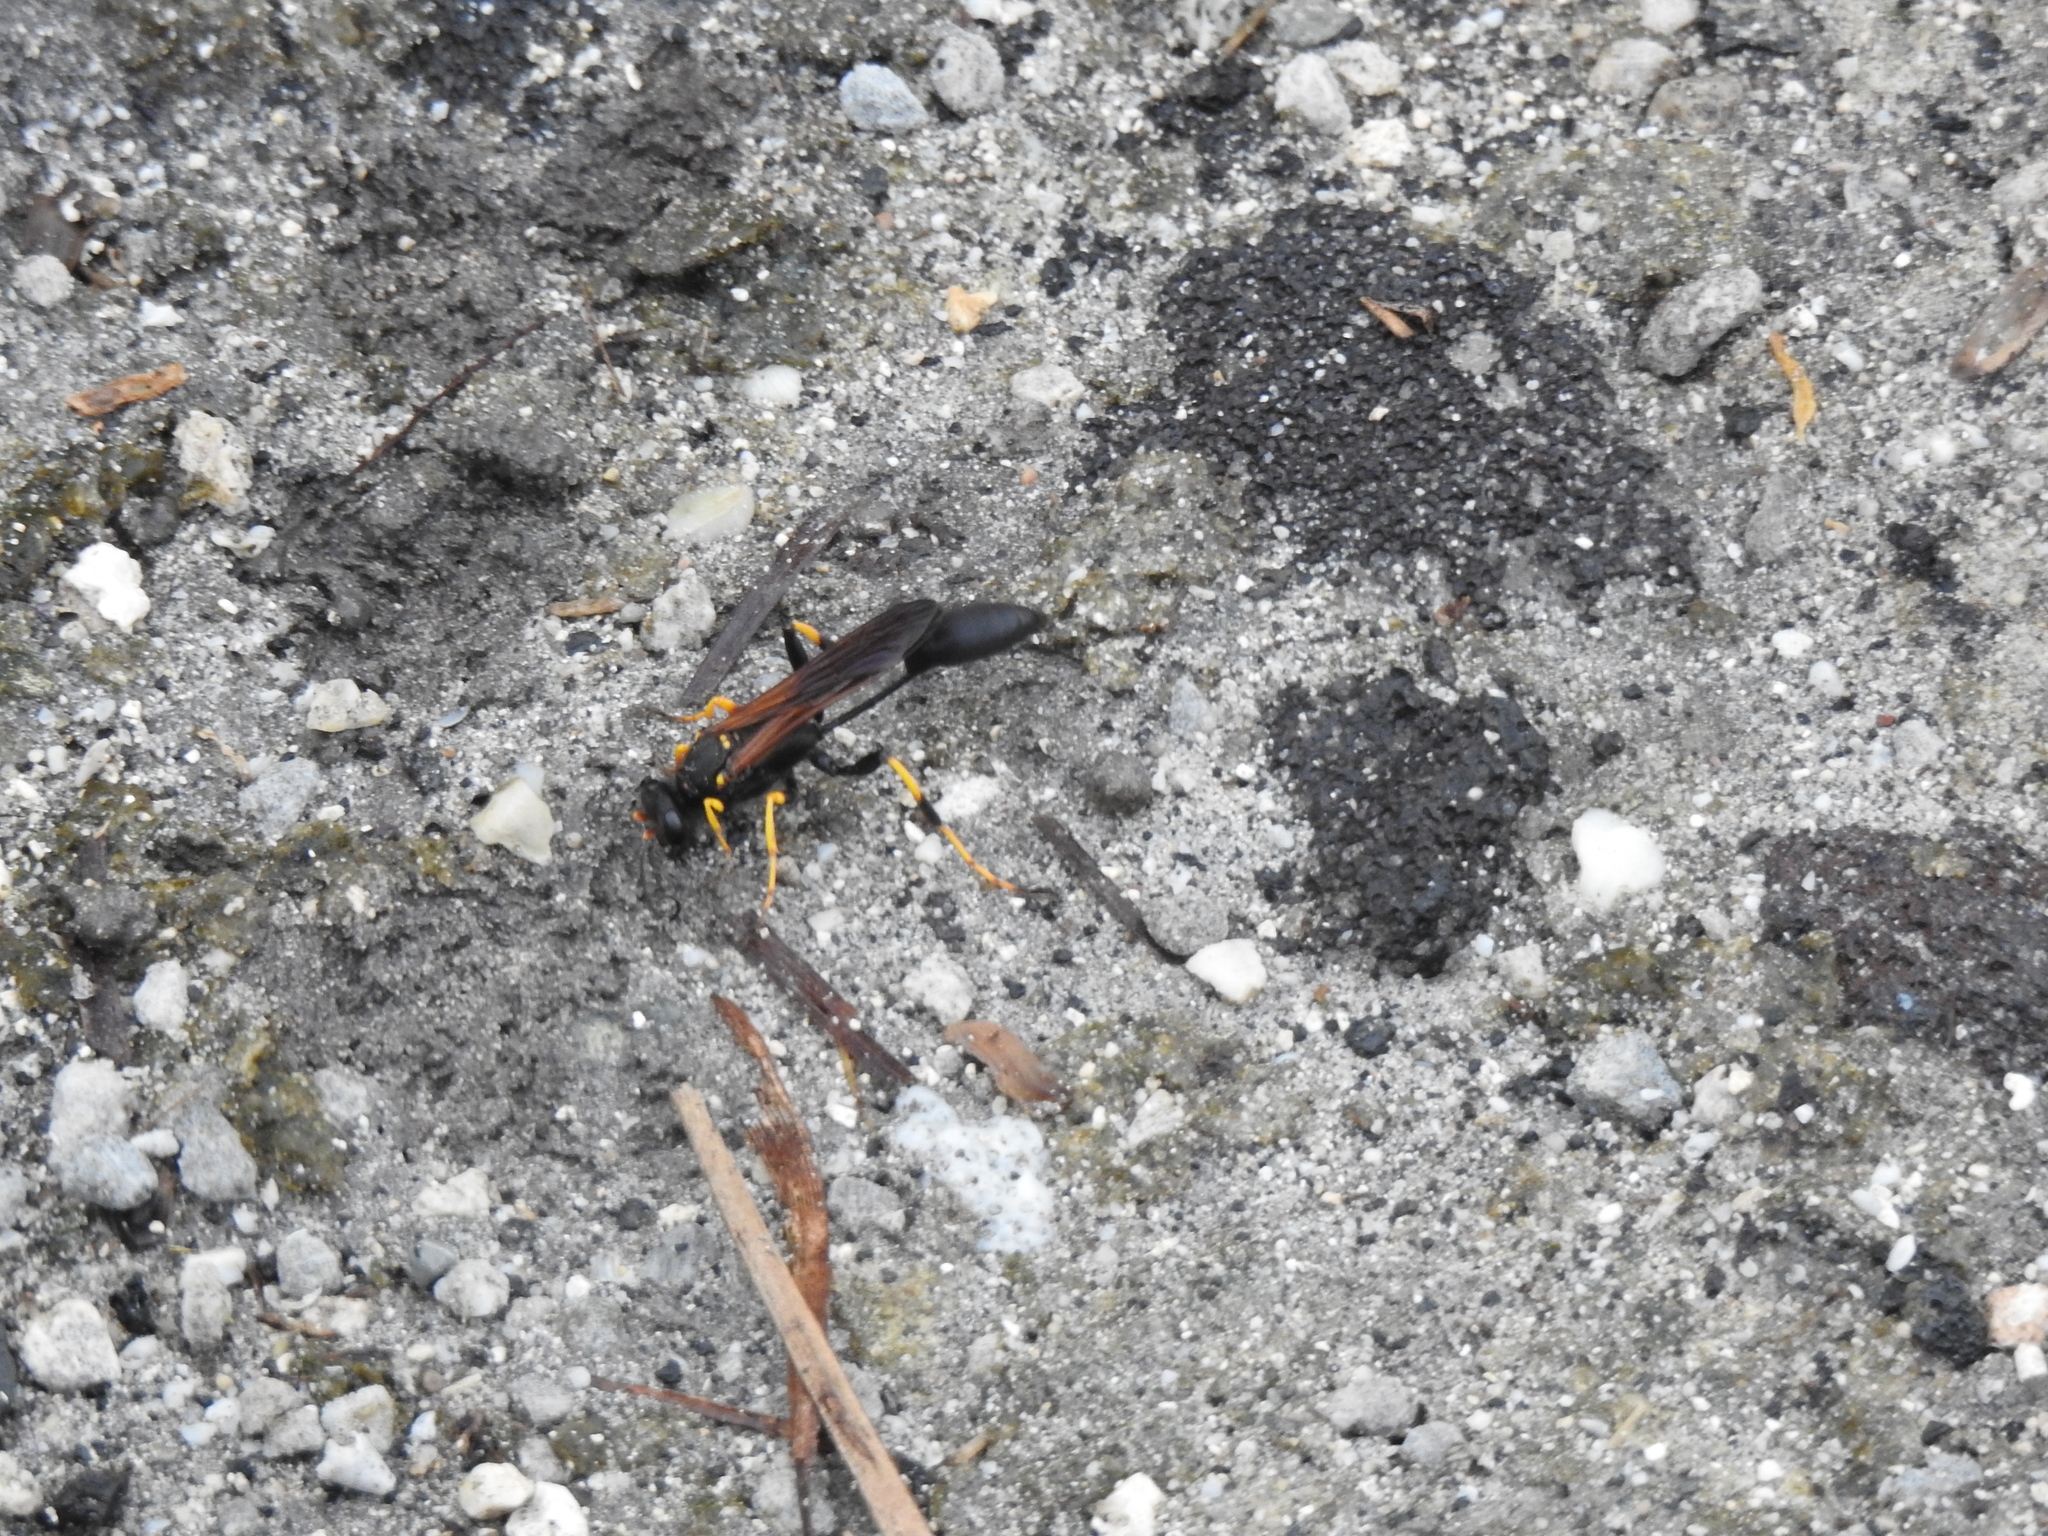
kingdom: Animalia
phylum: Arthropoda
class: Insecta
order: Hymenoptera
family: Sphecidae
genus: Sceliphron
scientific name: Sceliphron caementarium
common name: Mud dauber
